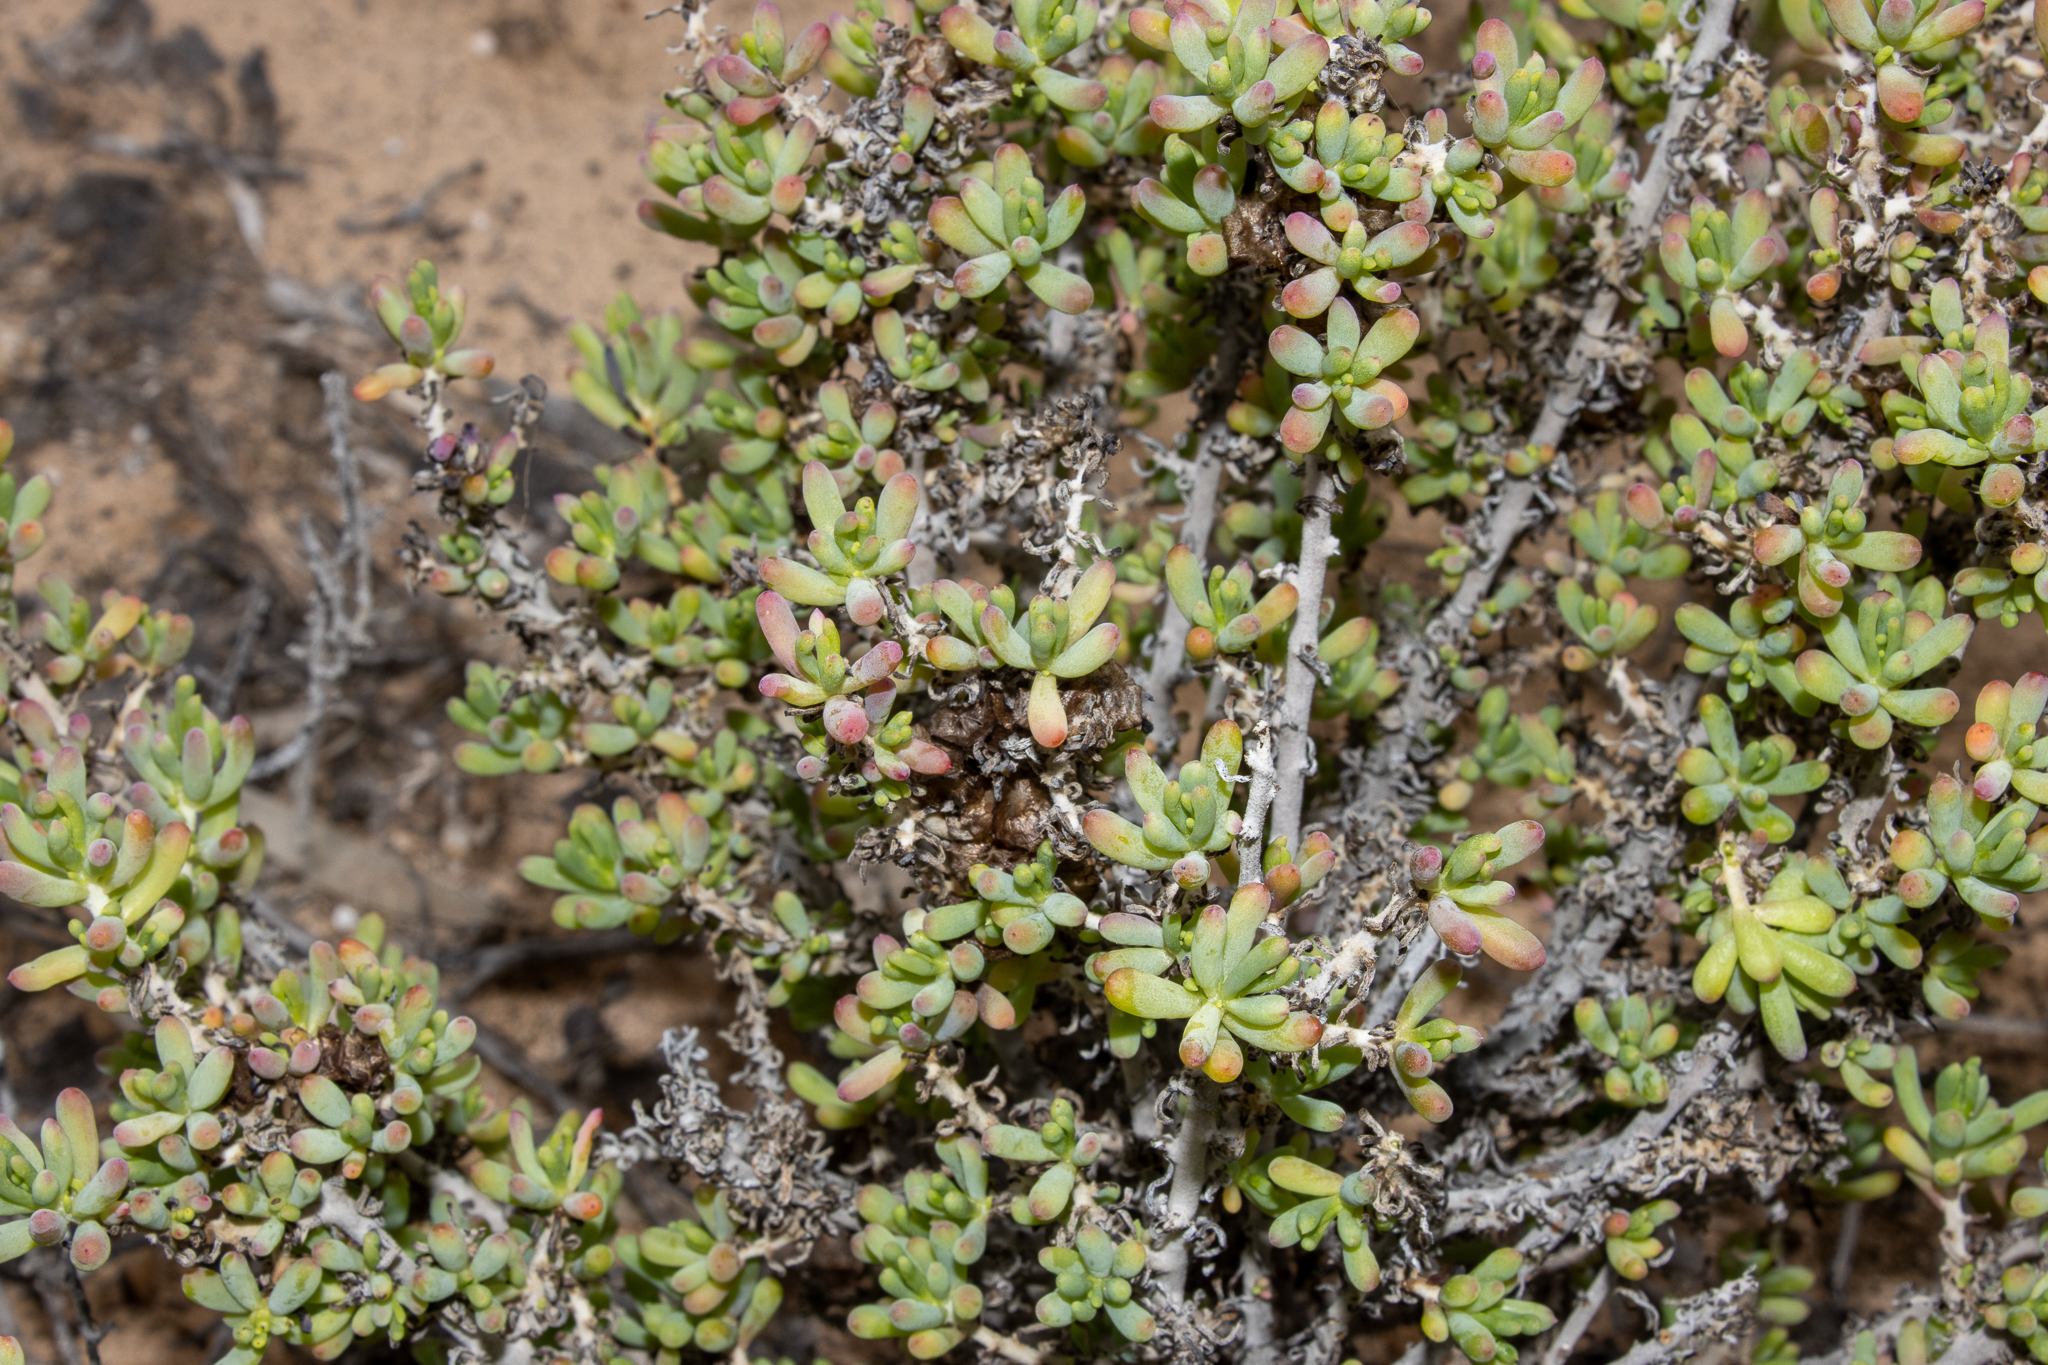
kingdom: Plantae
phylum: Tracheophyta
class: Magnoliopsida
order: Caryophyllales
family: Amaranthaceae
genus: Maireana
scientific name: Maireana erioclada
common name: Rosy bluebush
